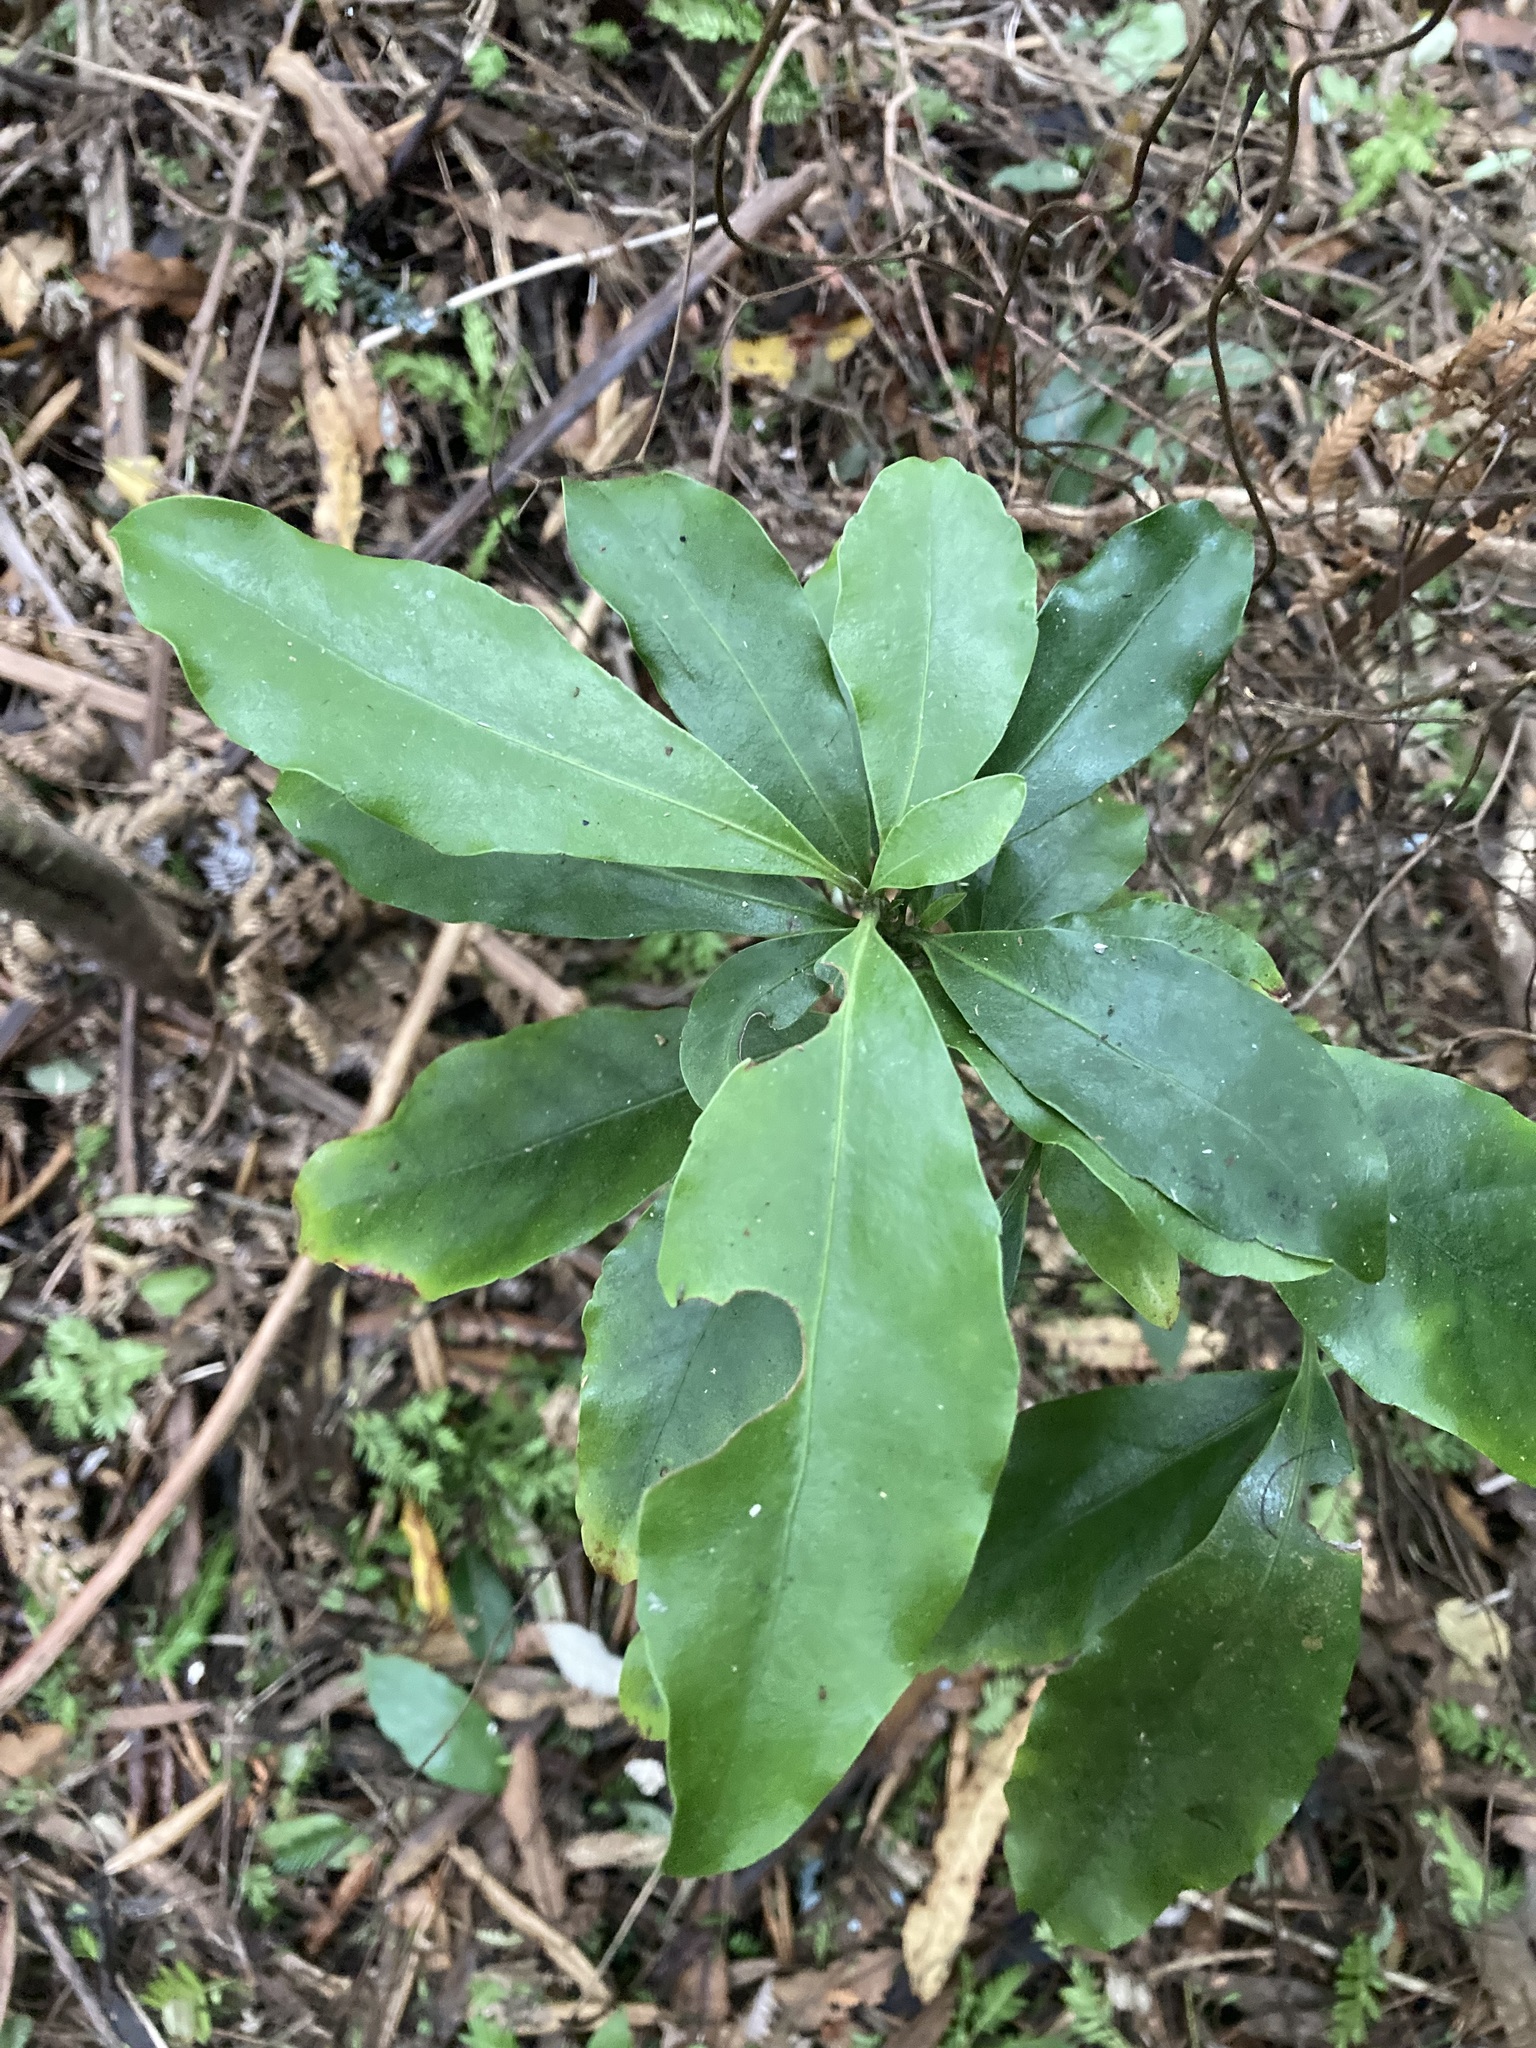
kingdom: Plantae
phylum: Tracheophyta
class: Magnoliopsida
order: Asterales
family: Alseuosmiaceae
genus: Alseuosmia
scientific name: Alseuosmia macrophylla
